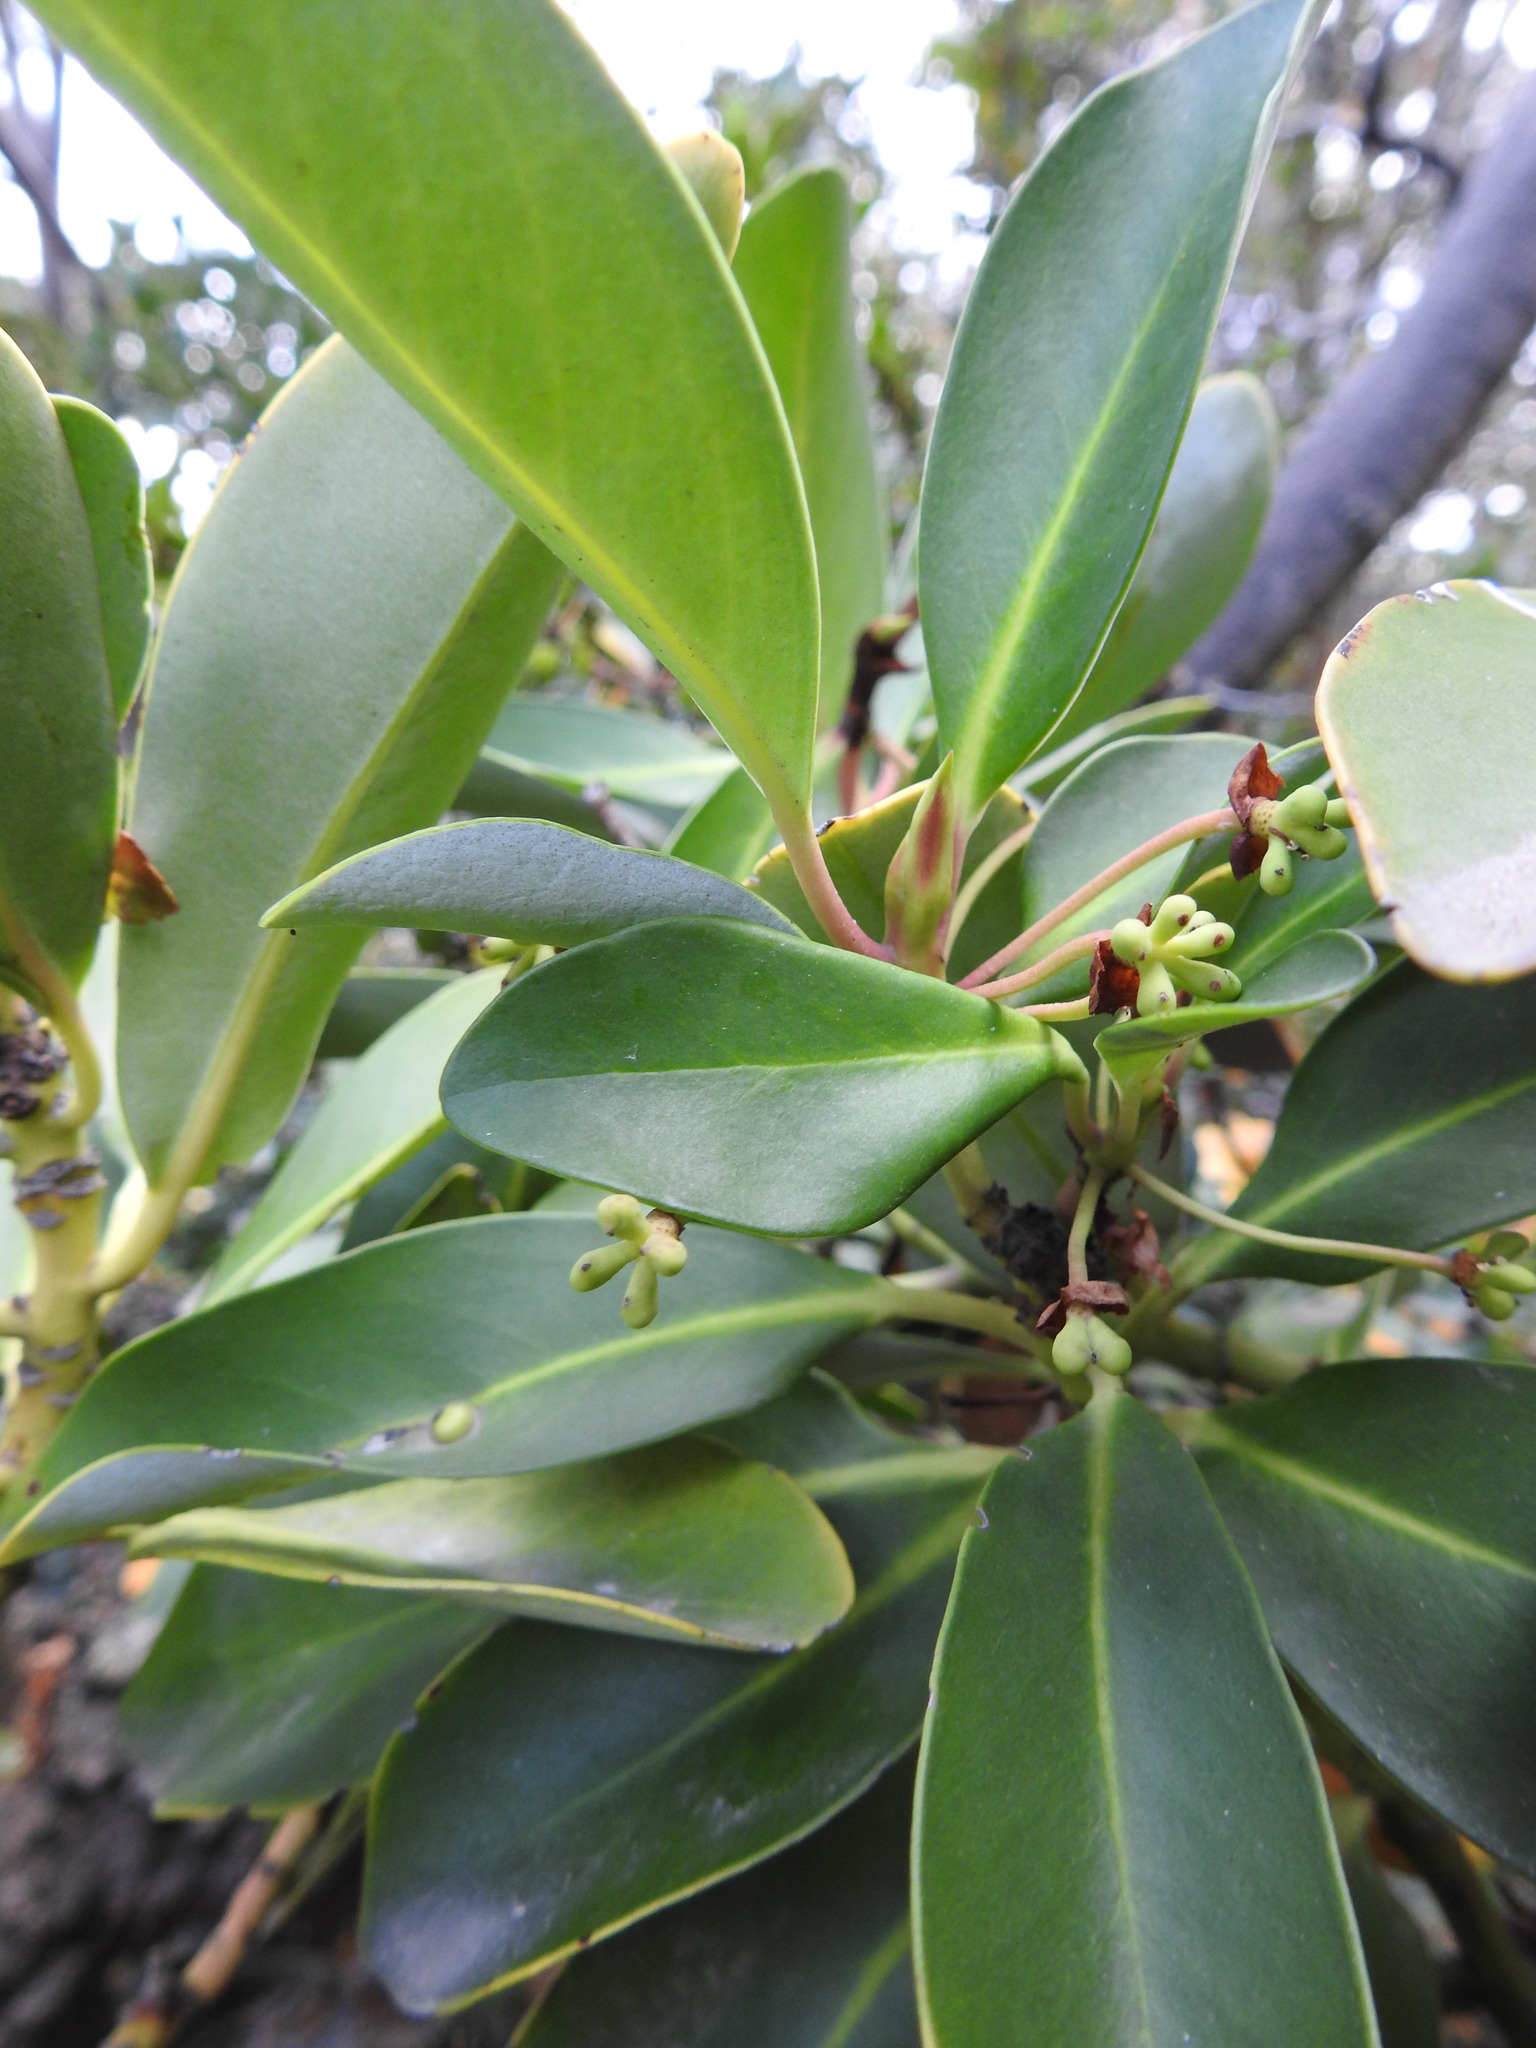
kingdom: Plantae
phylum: Tracheophyta
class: Magnoliopsida
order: Canellales
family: Winteraceae
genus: Drimys
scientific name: Drimys winteri
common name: Winter's-bark
